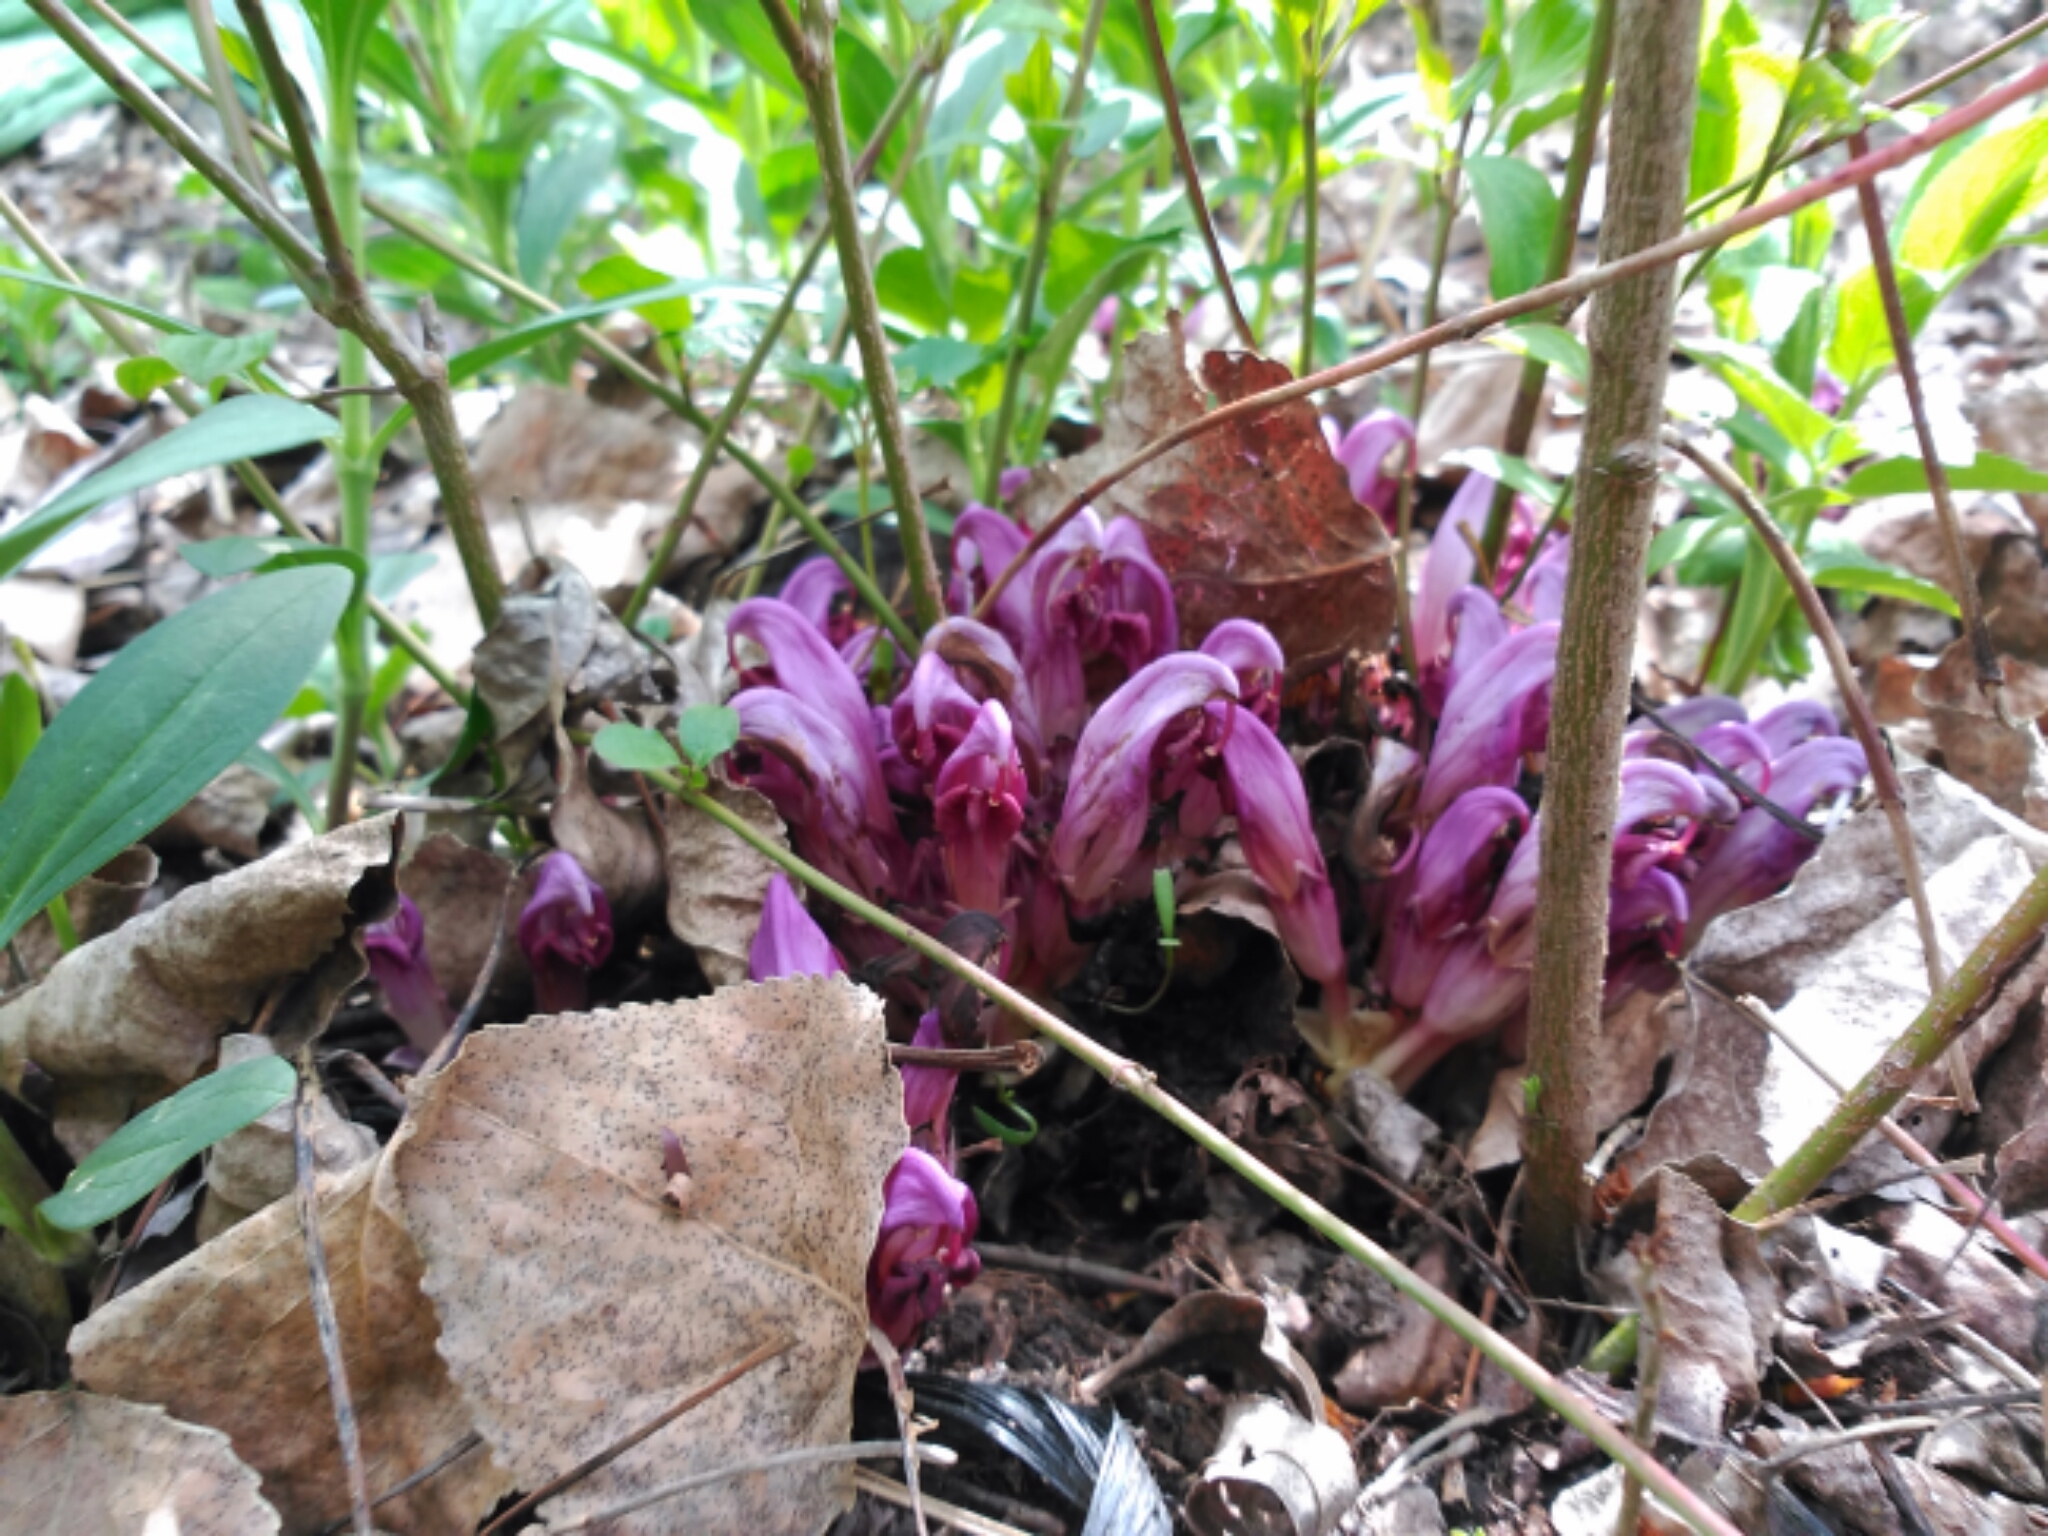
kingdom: Plantae
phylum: Tracheophyta
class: Magnoliopsida
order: Lamiales
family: Orobanchaceae
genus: Lathraea
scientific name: Lathraea clandestina
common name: Purple toothwort
